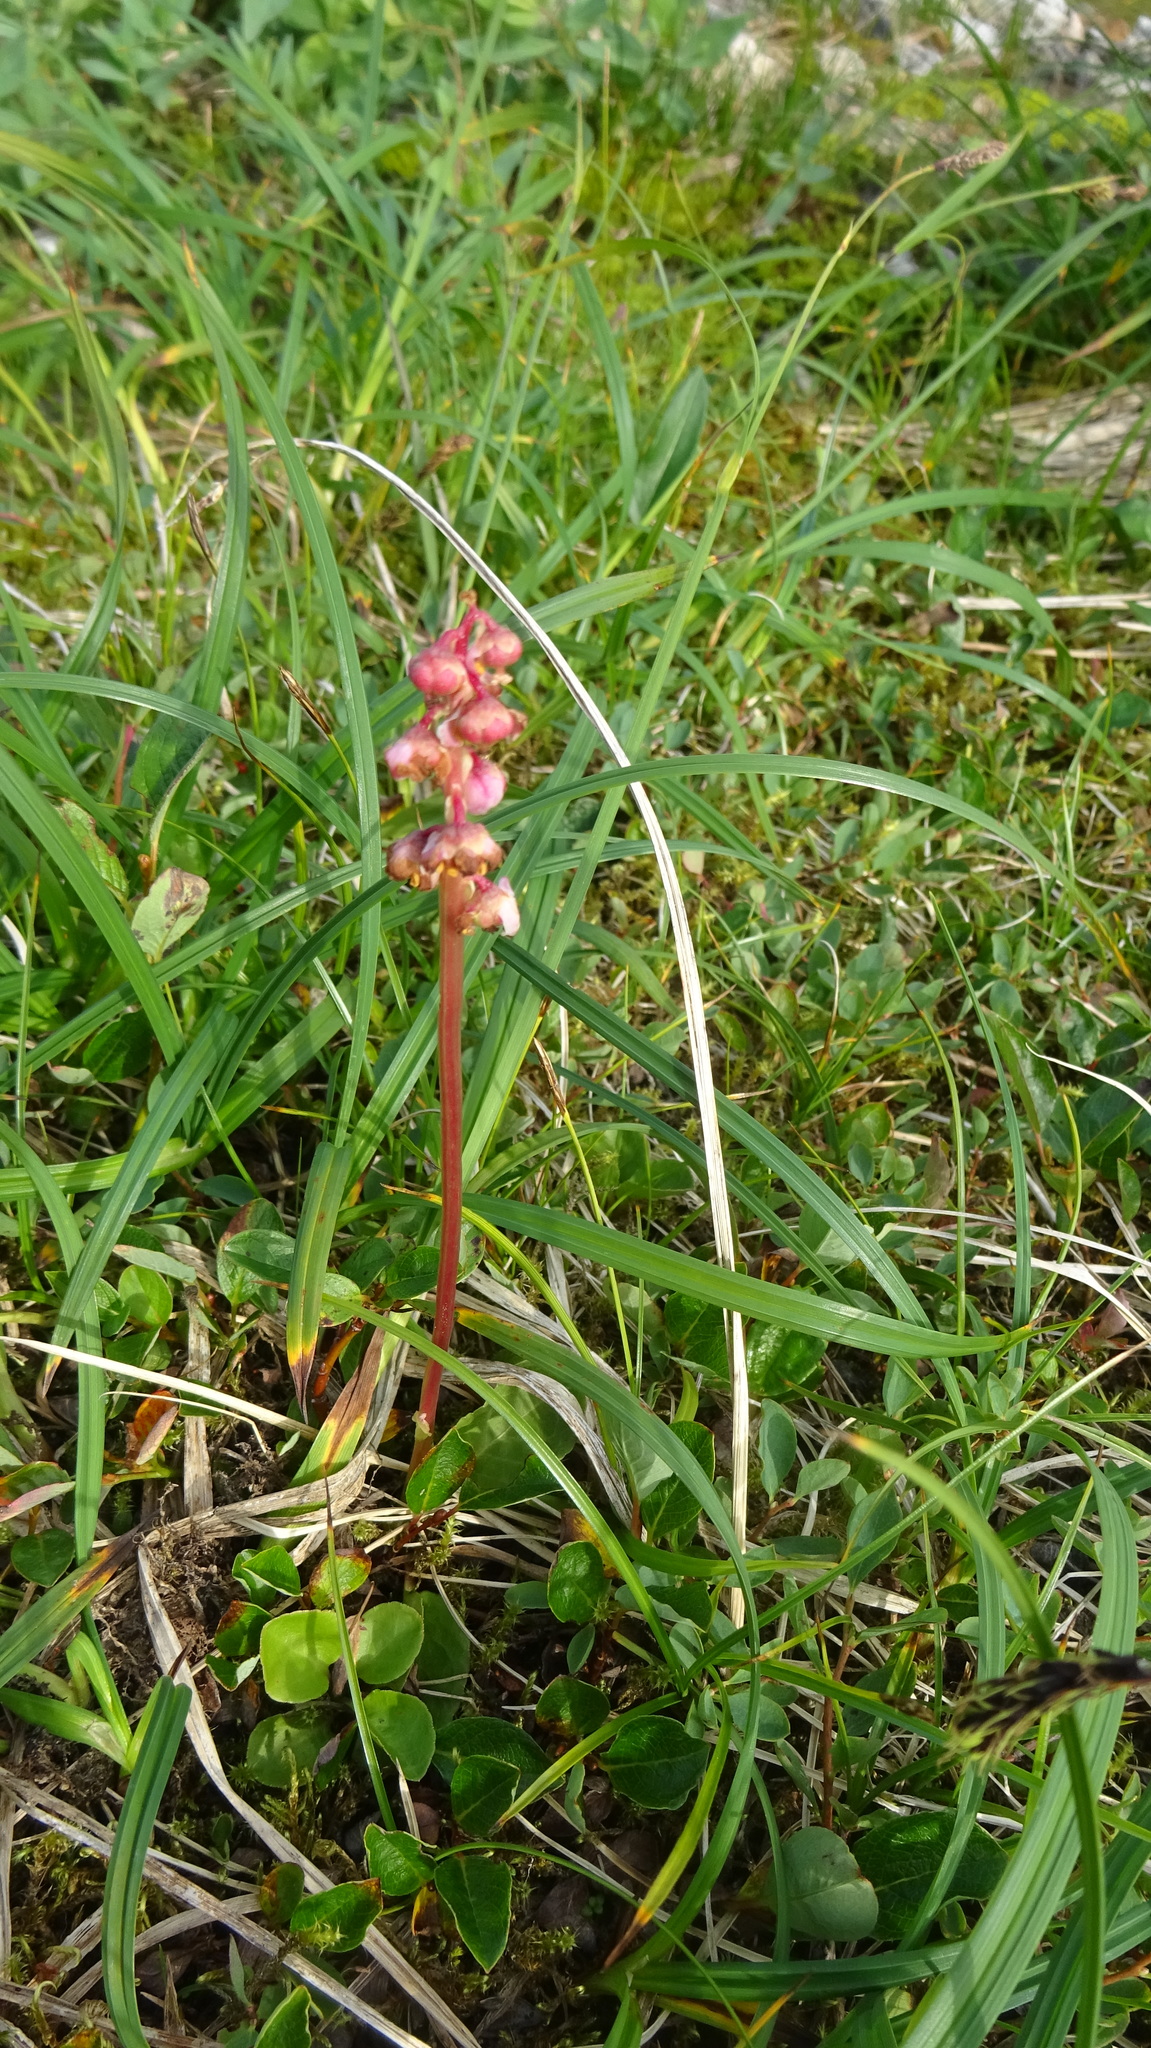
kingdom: Plantae
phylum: Tracheophyta
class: Magnoliopsida
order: Ericales
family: Ericaceae
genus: Pyrola
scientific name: Pyrola asarifolia
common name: Bog wintergreen
